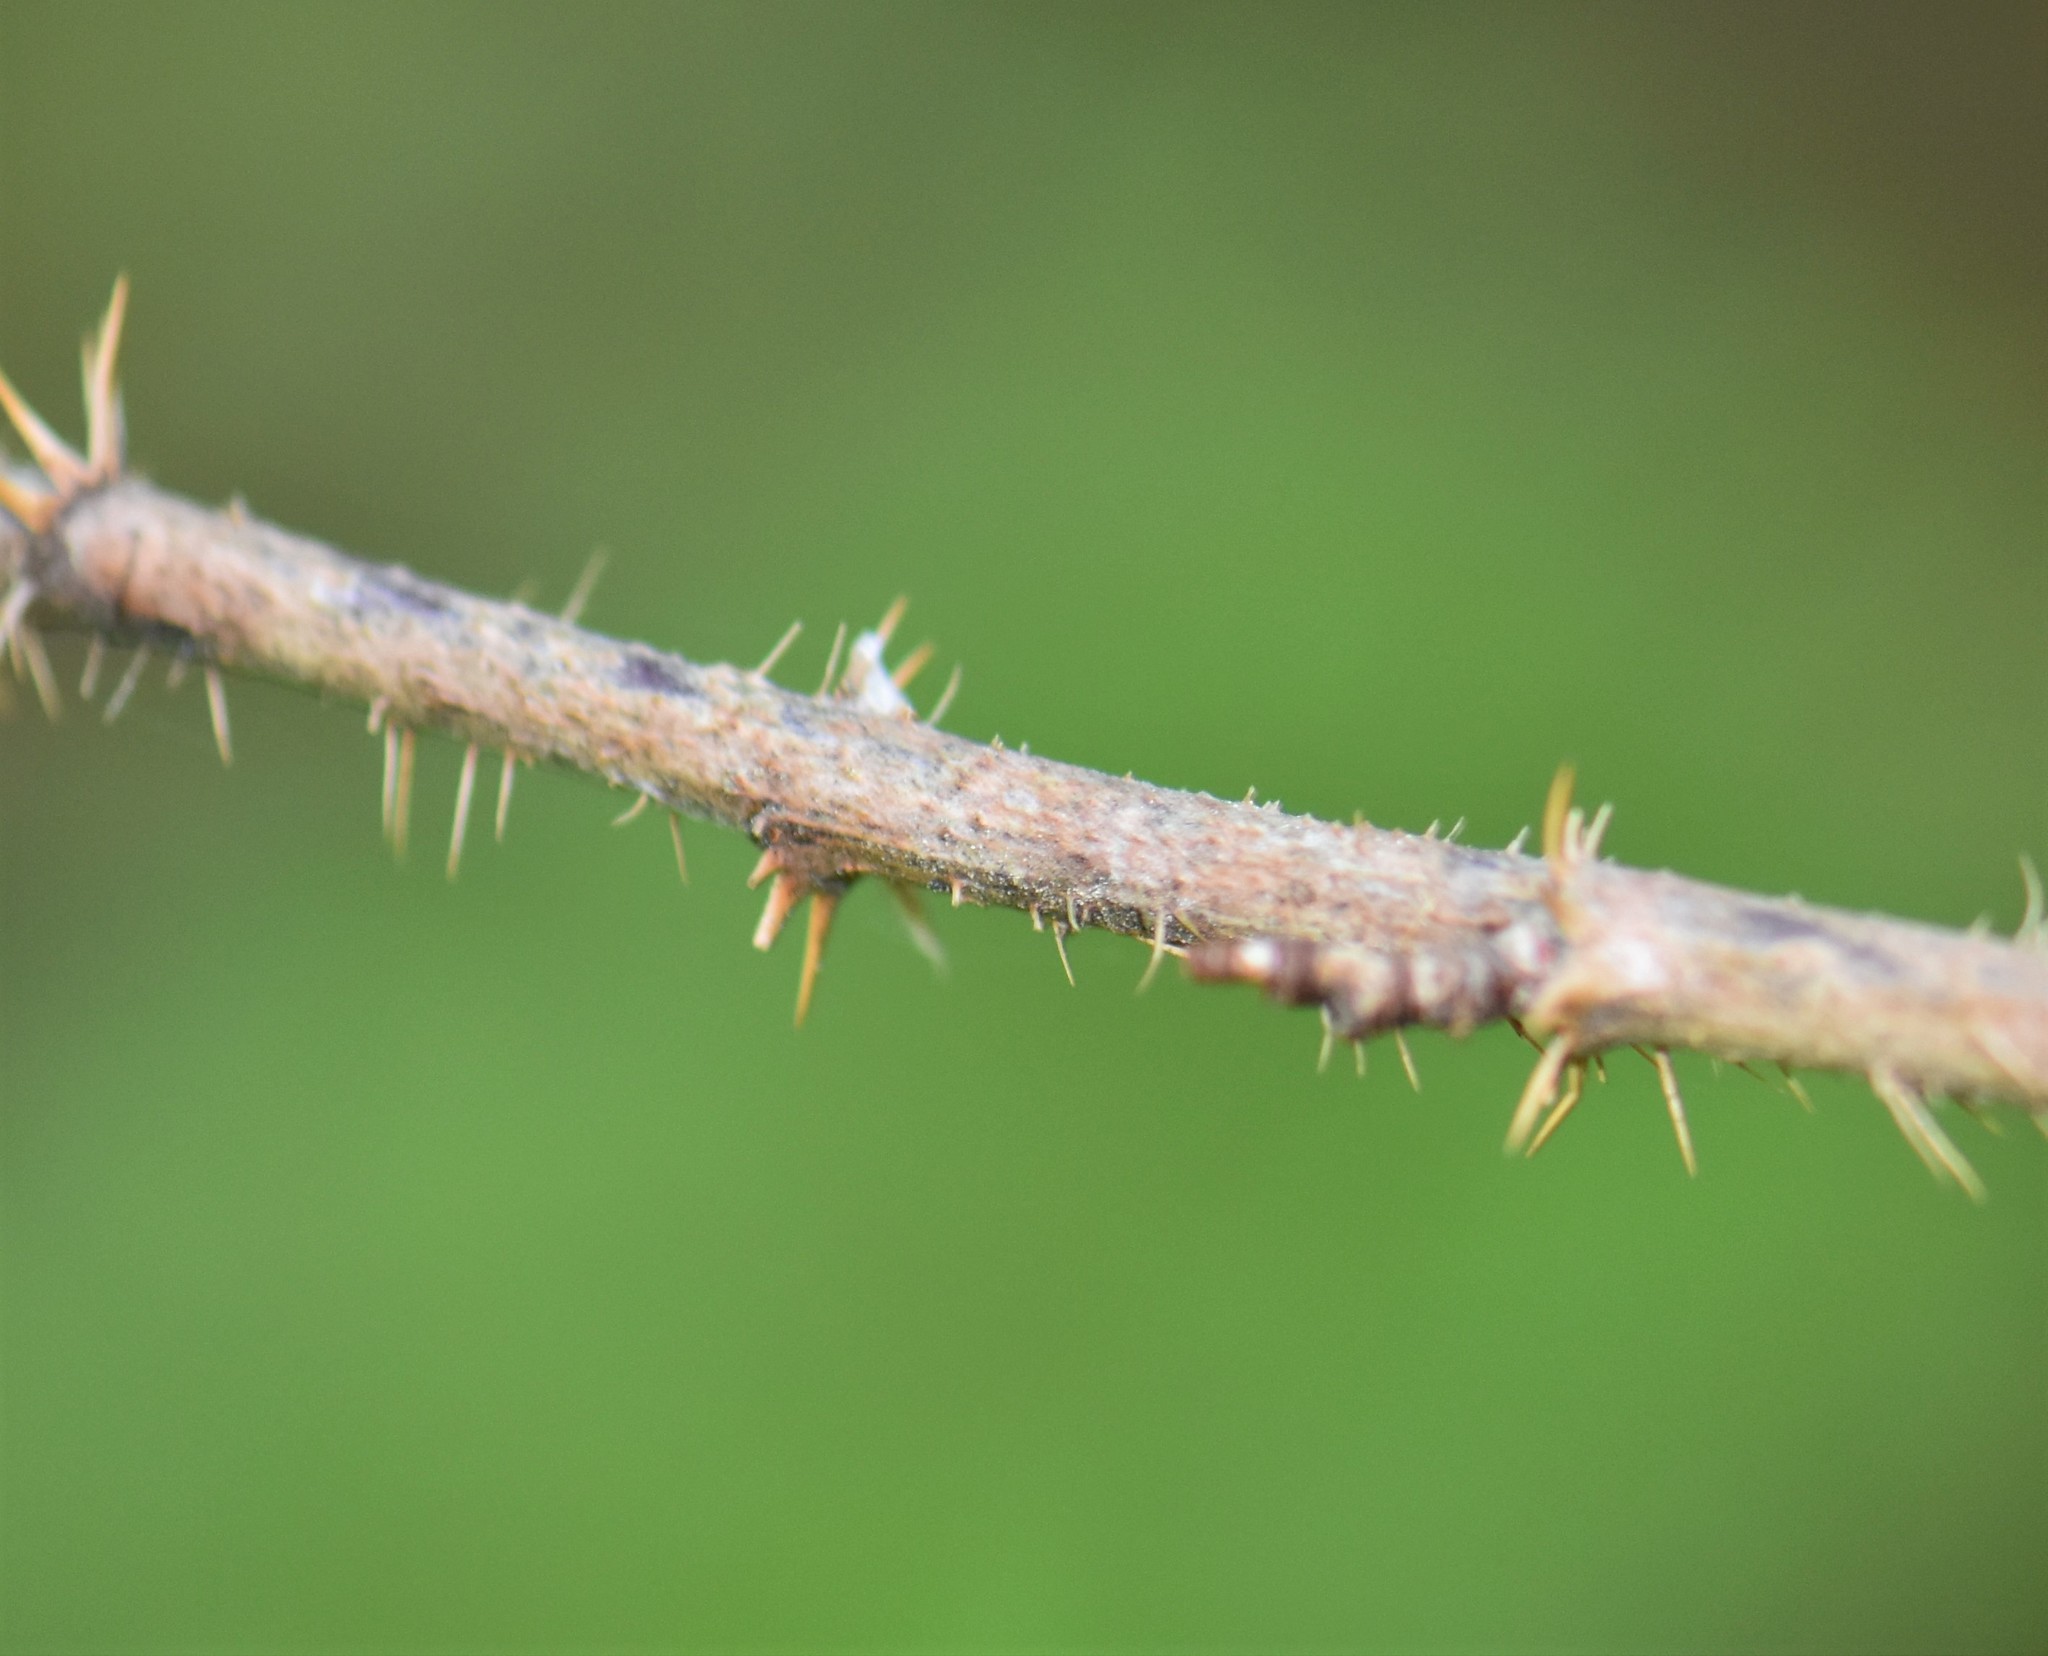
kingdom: Plantae
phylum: Tracheophyta
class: Magnoliopsida
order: Saxifragales
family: Grossulariaceae
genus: Ribes
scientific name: Ribes lacustre
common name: Black gooseberry
